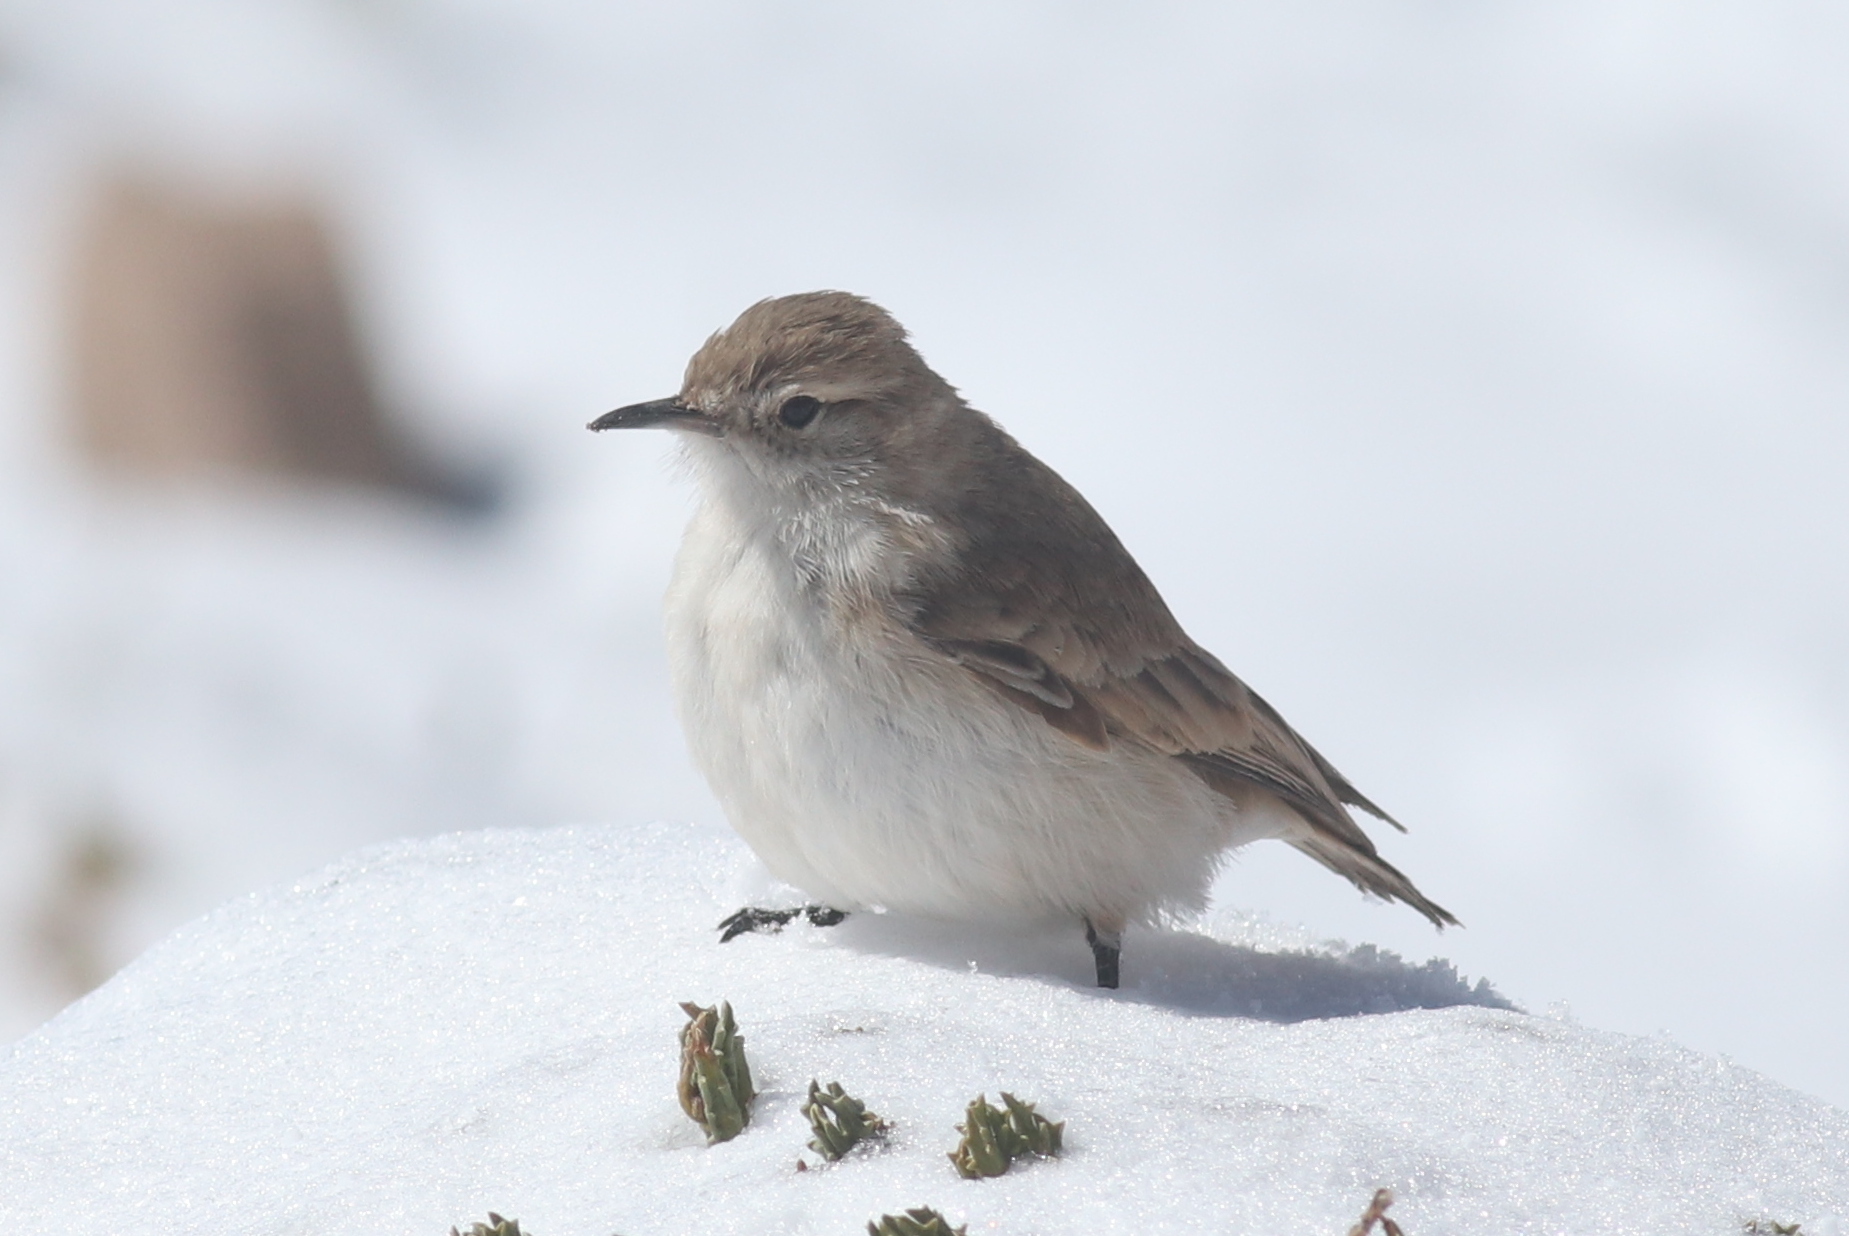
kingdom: Animalia
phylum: Chordata
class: Aves
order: Passeriformes
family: Furnariidae
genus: Geositta
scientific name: Geositta punensis
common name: Puna miner
